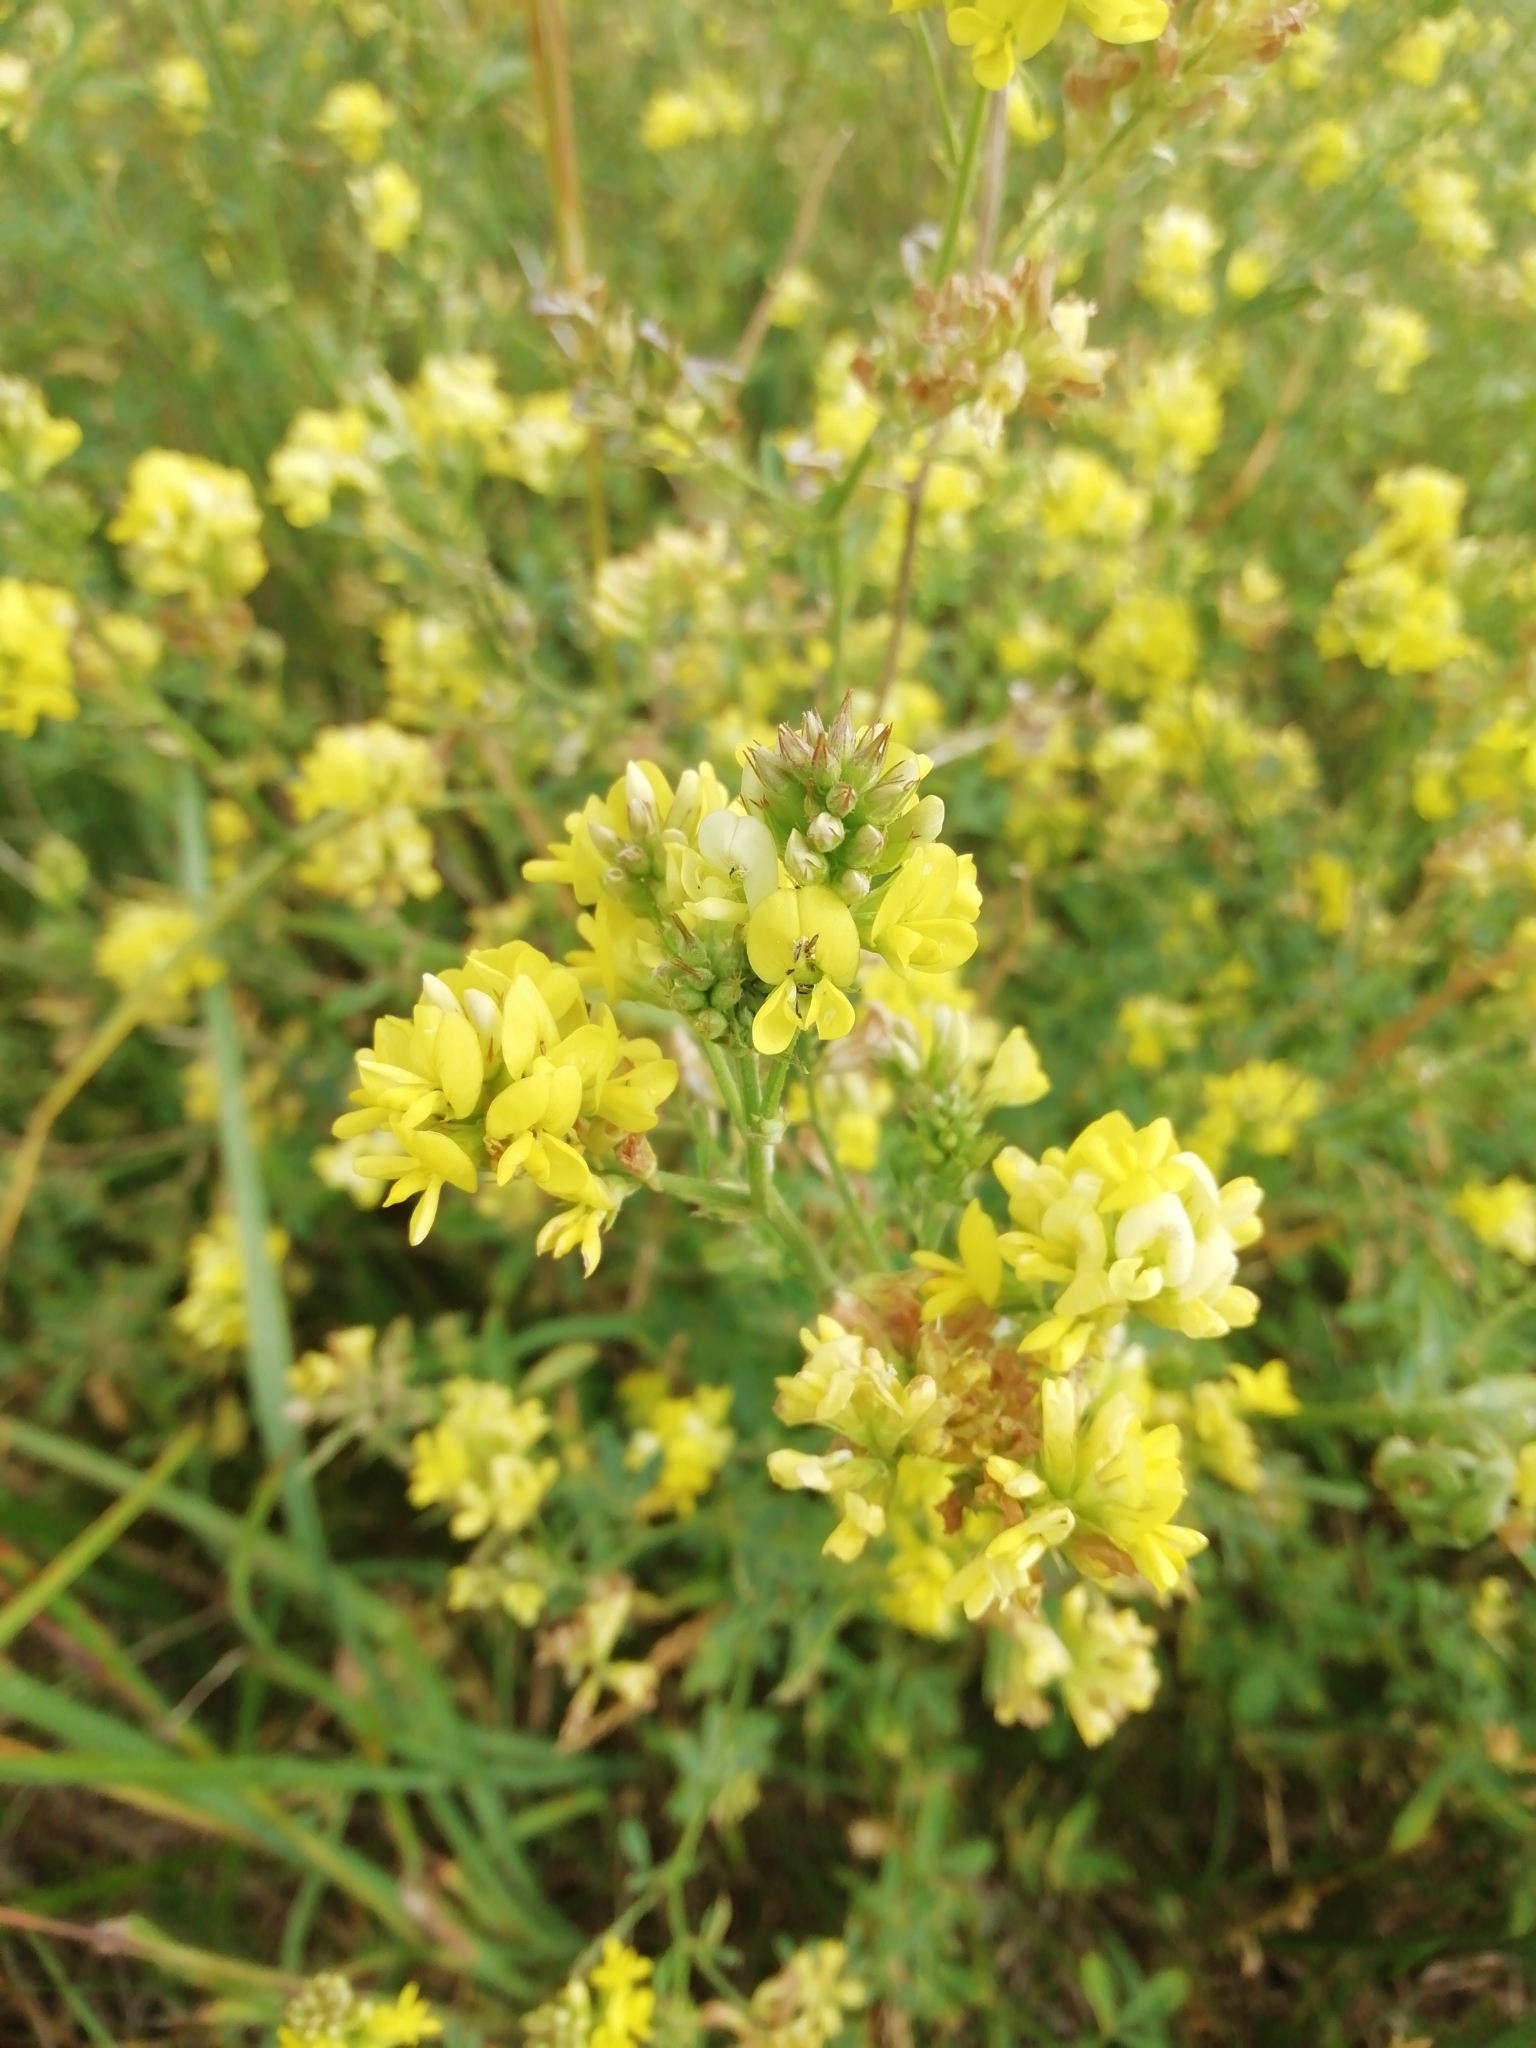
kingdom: Plantae
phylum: Tracheophyta
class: Magnoliopsida
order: Fabales
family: Fabaceae
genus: Medicago
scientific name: Medicago falcata
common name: Sickle medick
